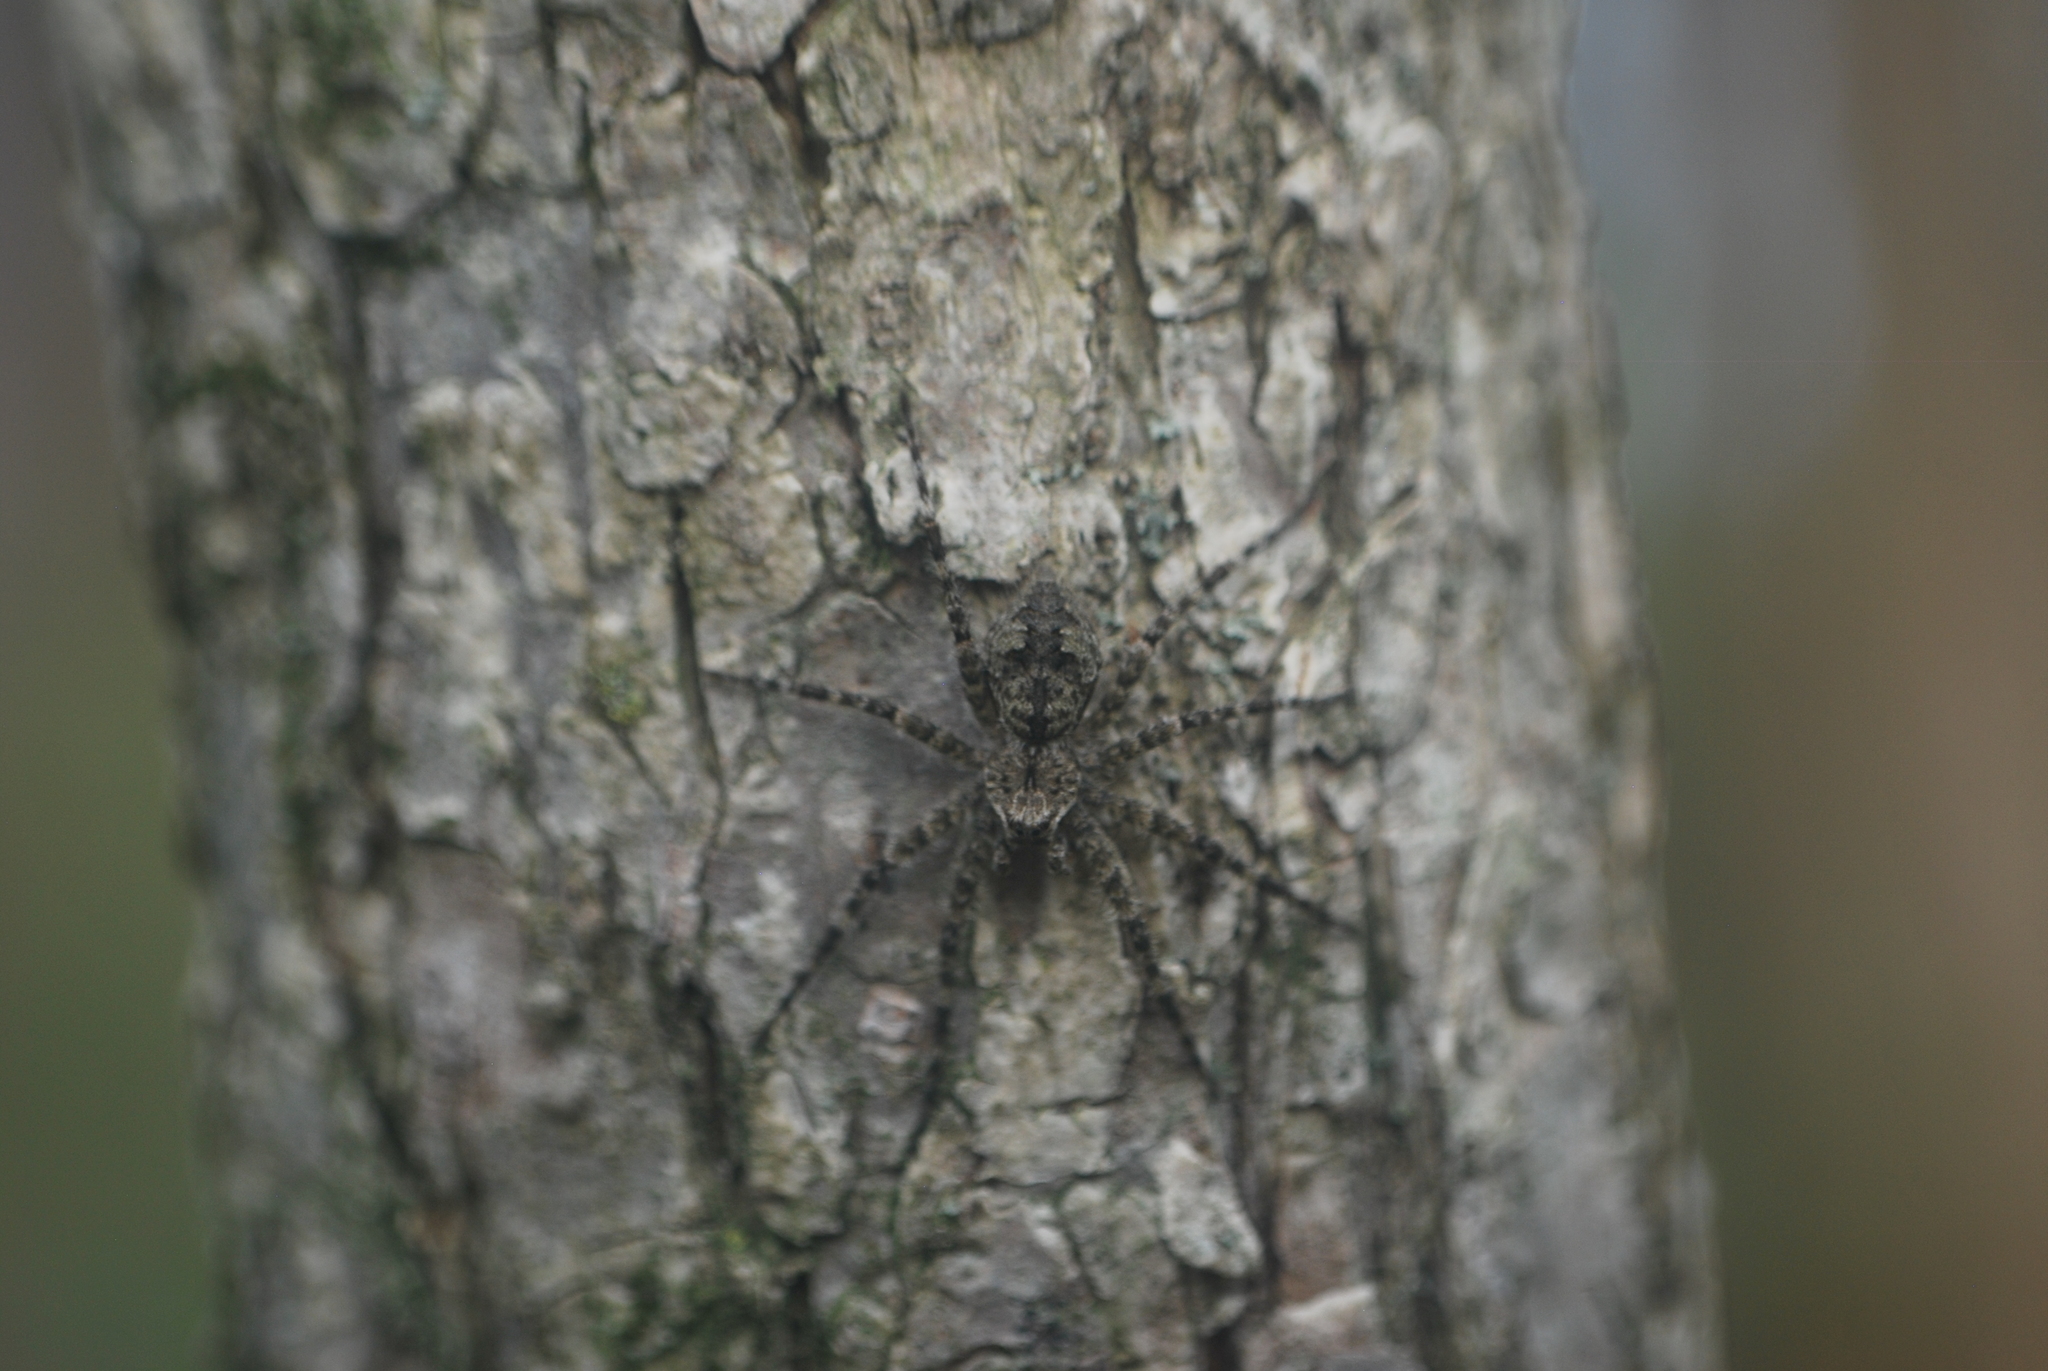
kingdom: Animalia
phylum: Arthropoda
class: Arachnida
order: Araneae
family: Pisauridae
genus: Dolomedes
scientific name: Dolomedes albineus
